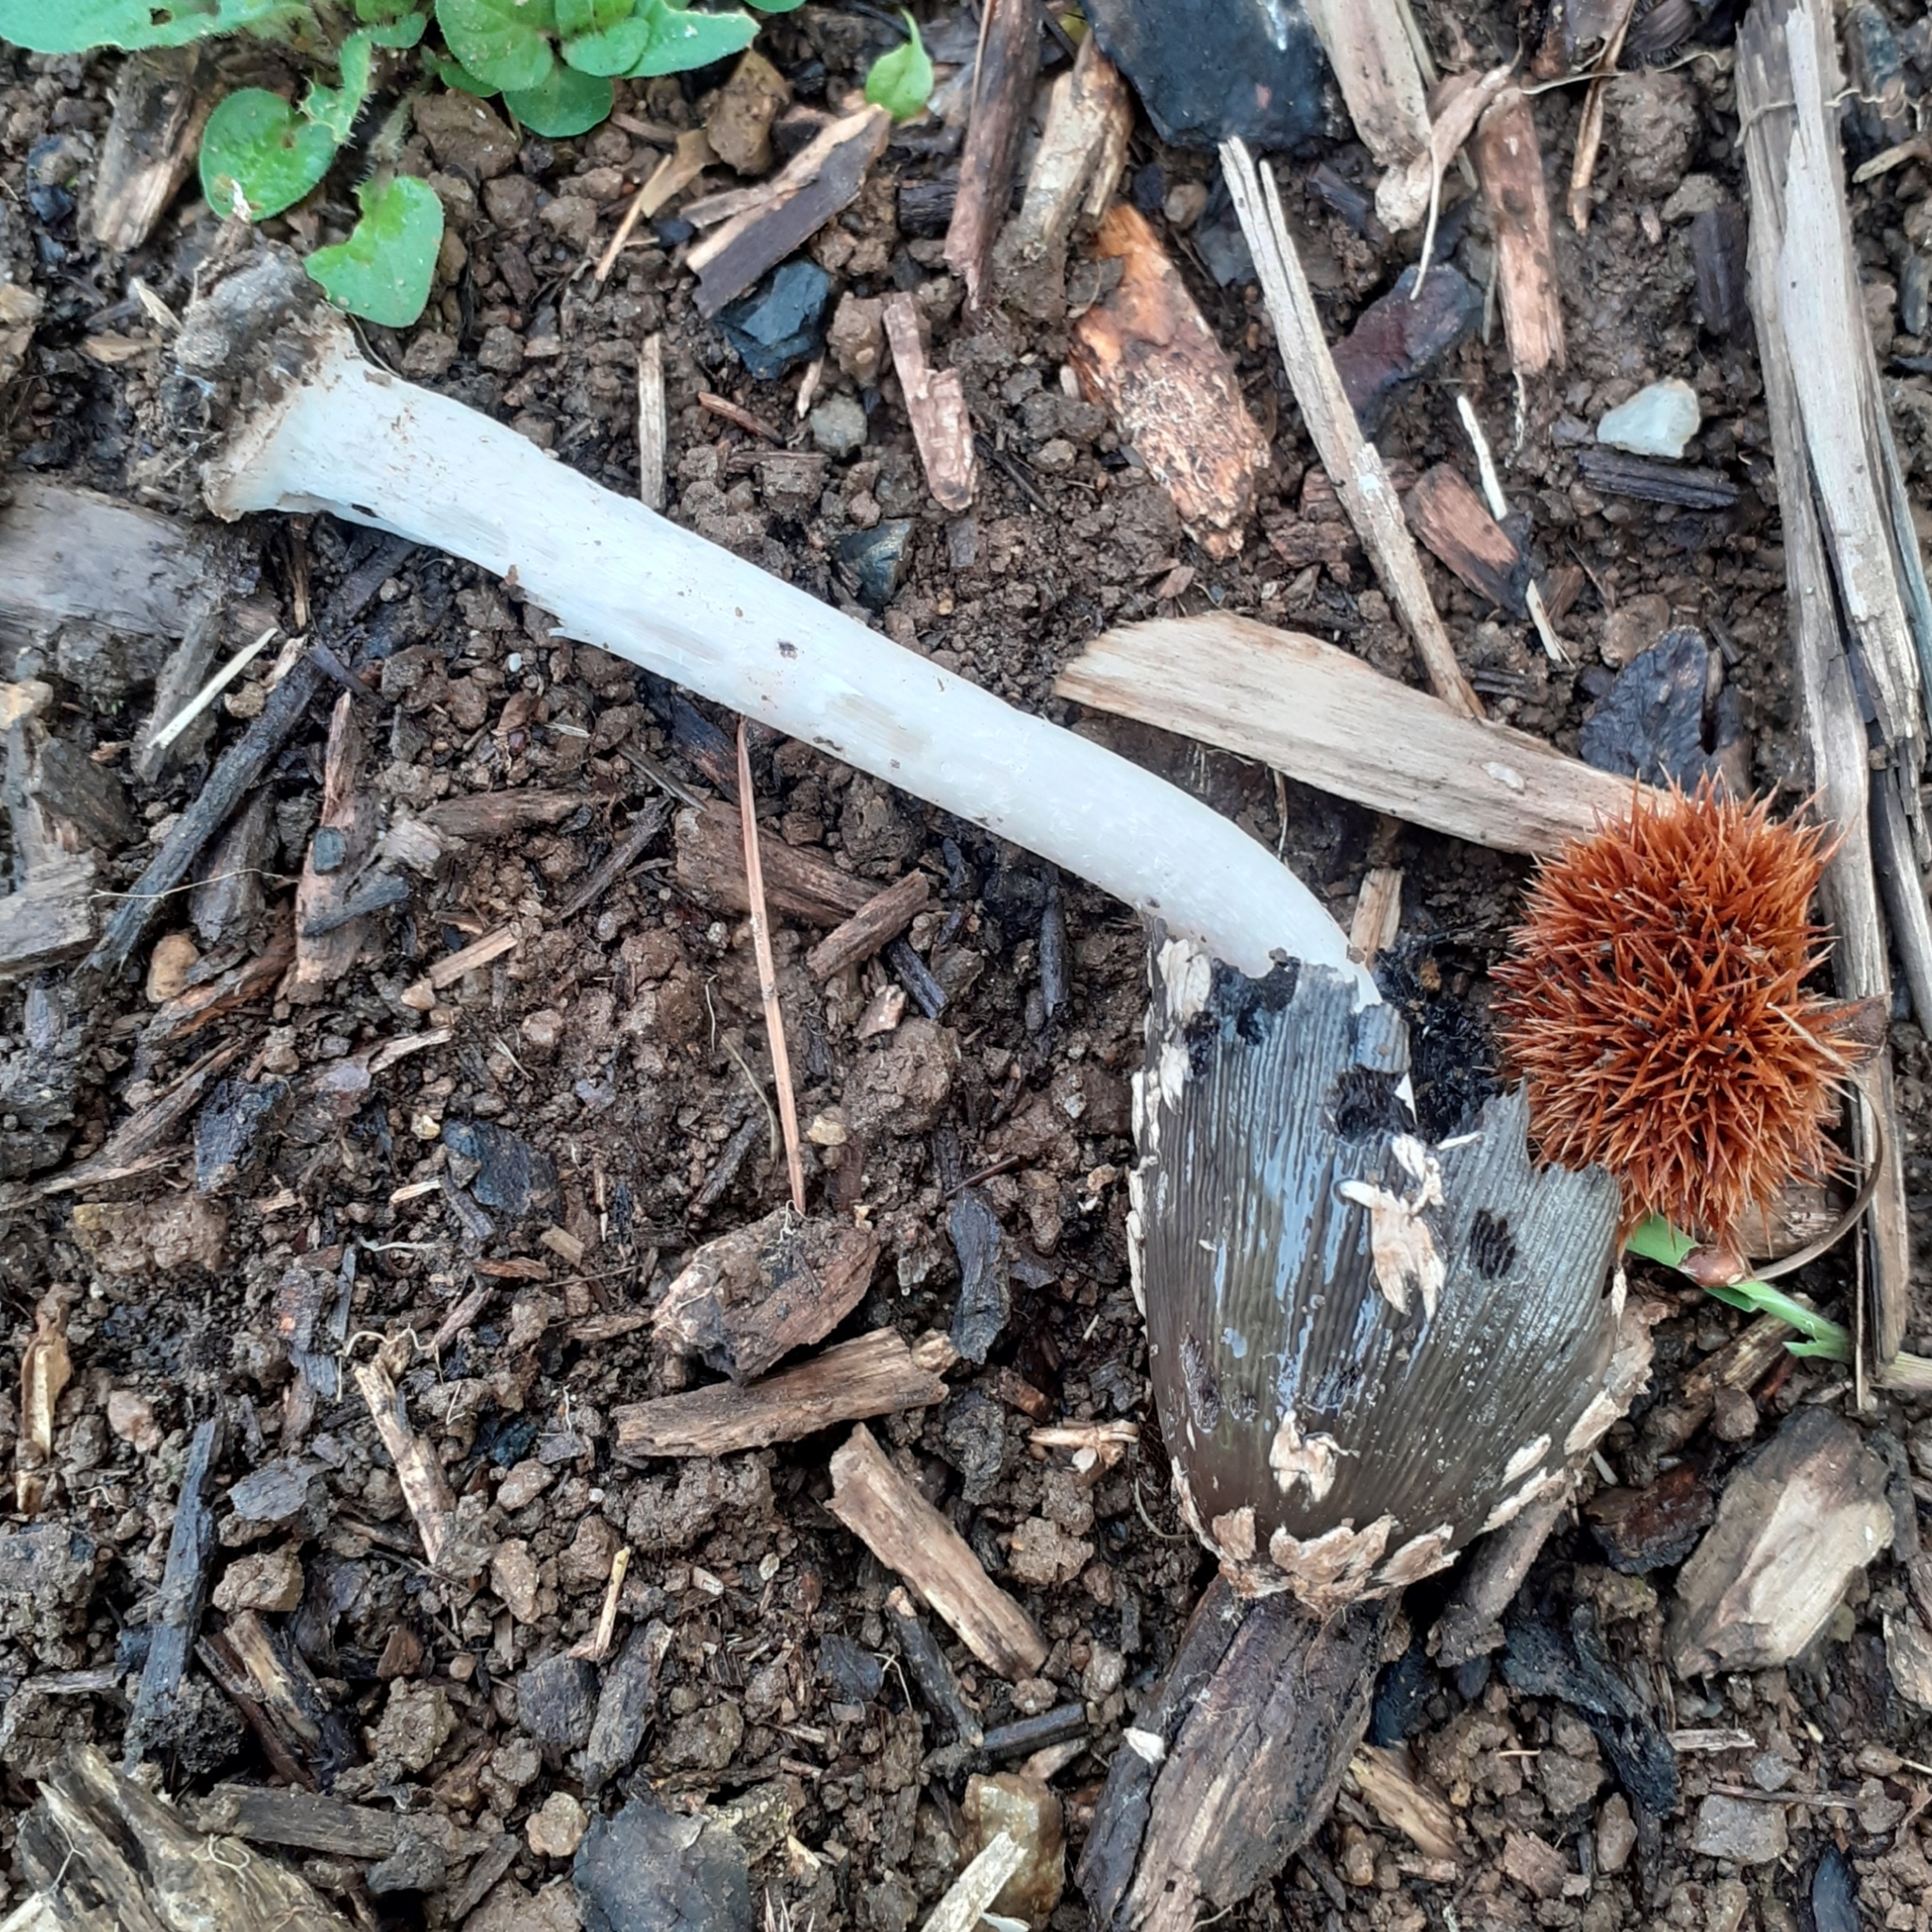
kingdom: Fungi
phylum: Basidiomycota
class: Agaricomycetes
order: Agaricales
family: Psathyrellaceae
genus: Coprinopsis
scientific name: Coprinopsis picacea
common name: Magpie inkcap
